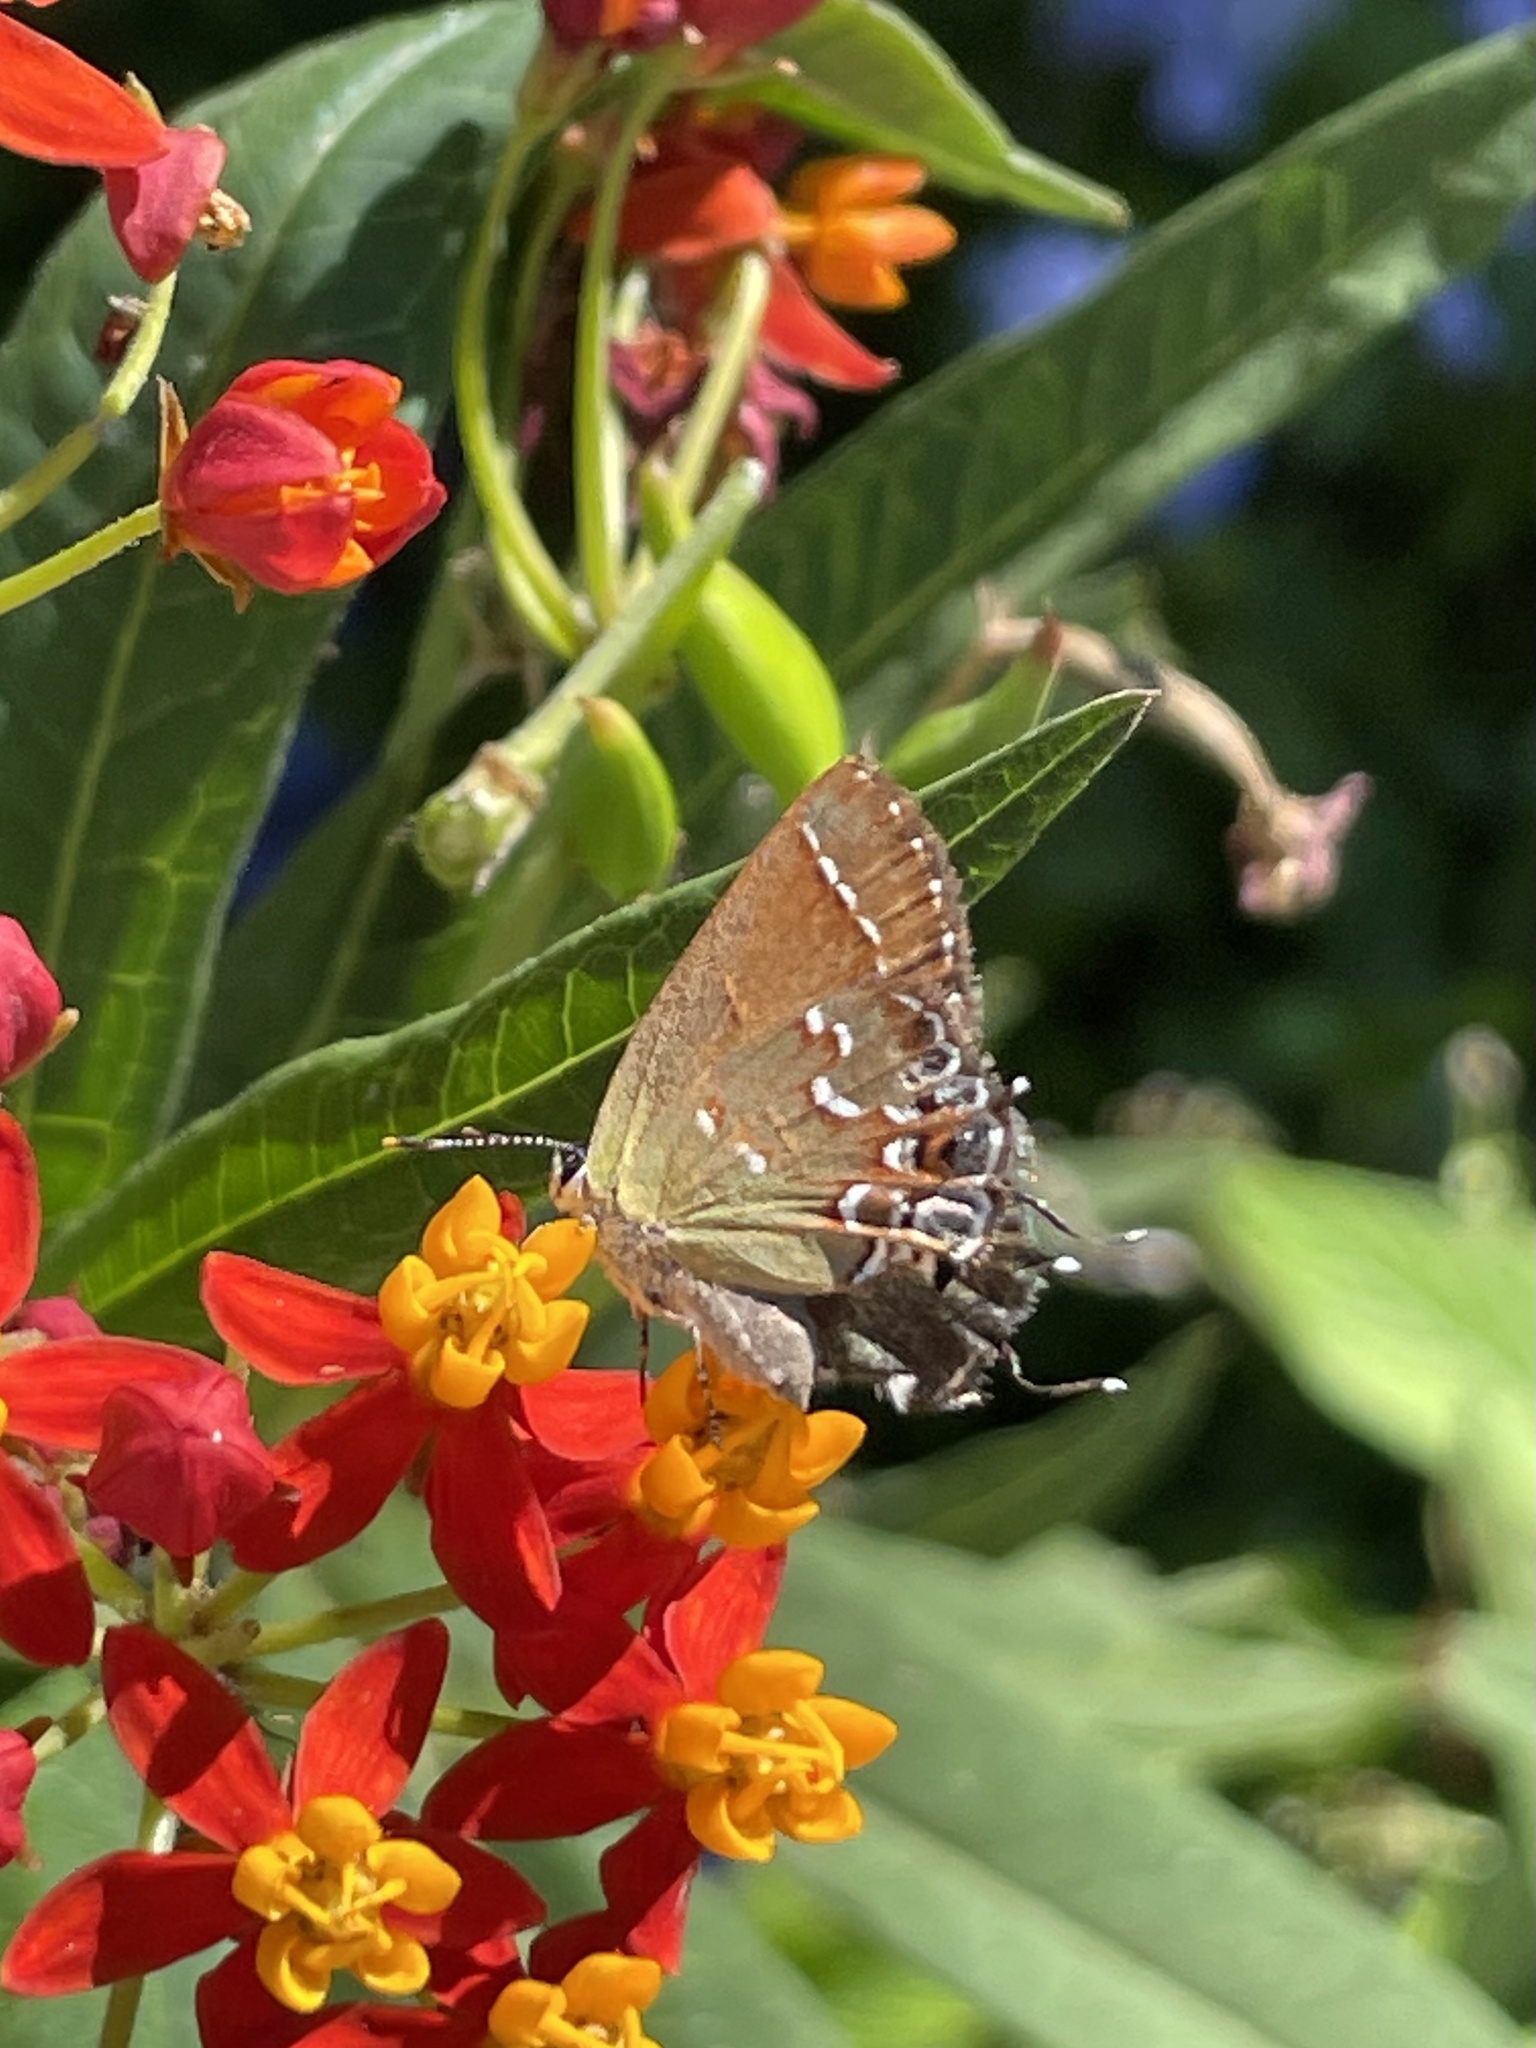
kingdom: Animalia
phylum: Arthropoda
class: Insecta
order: Lepidoptera
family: Lycaenidae
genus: Mitoura
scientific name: Mitoura gryneus
